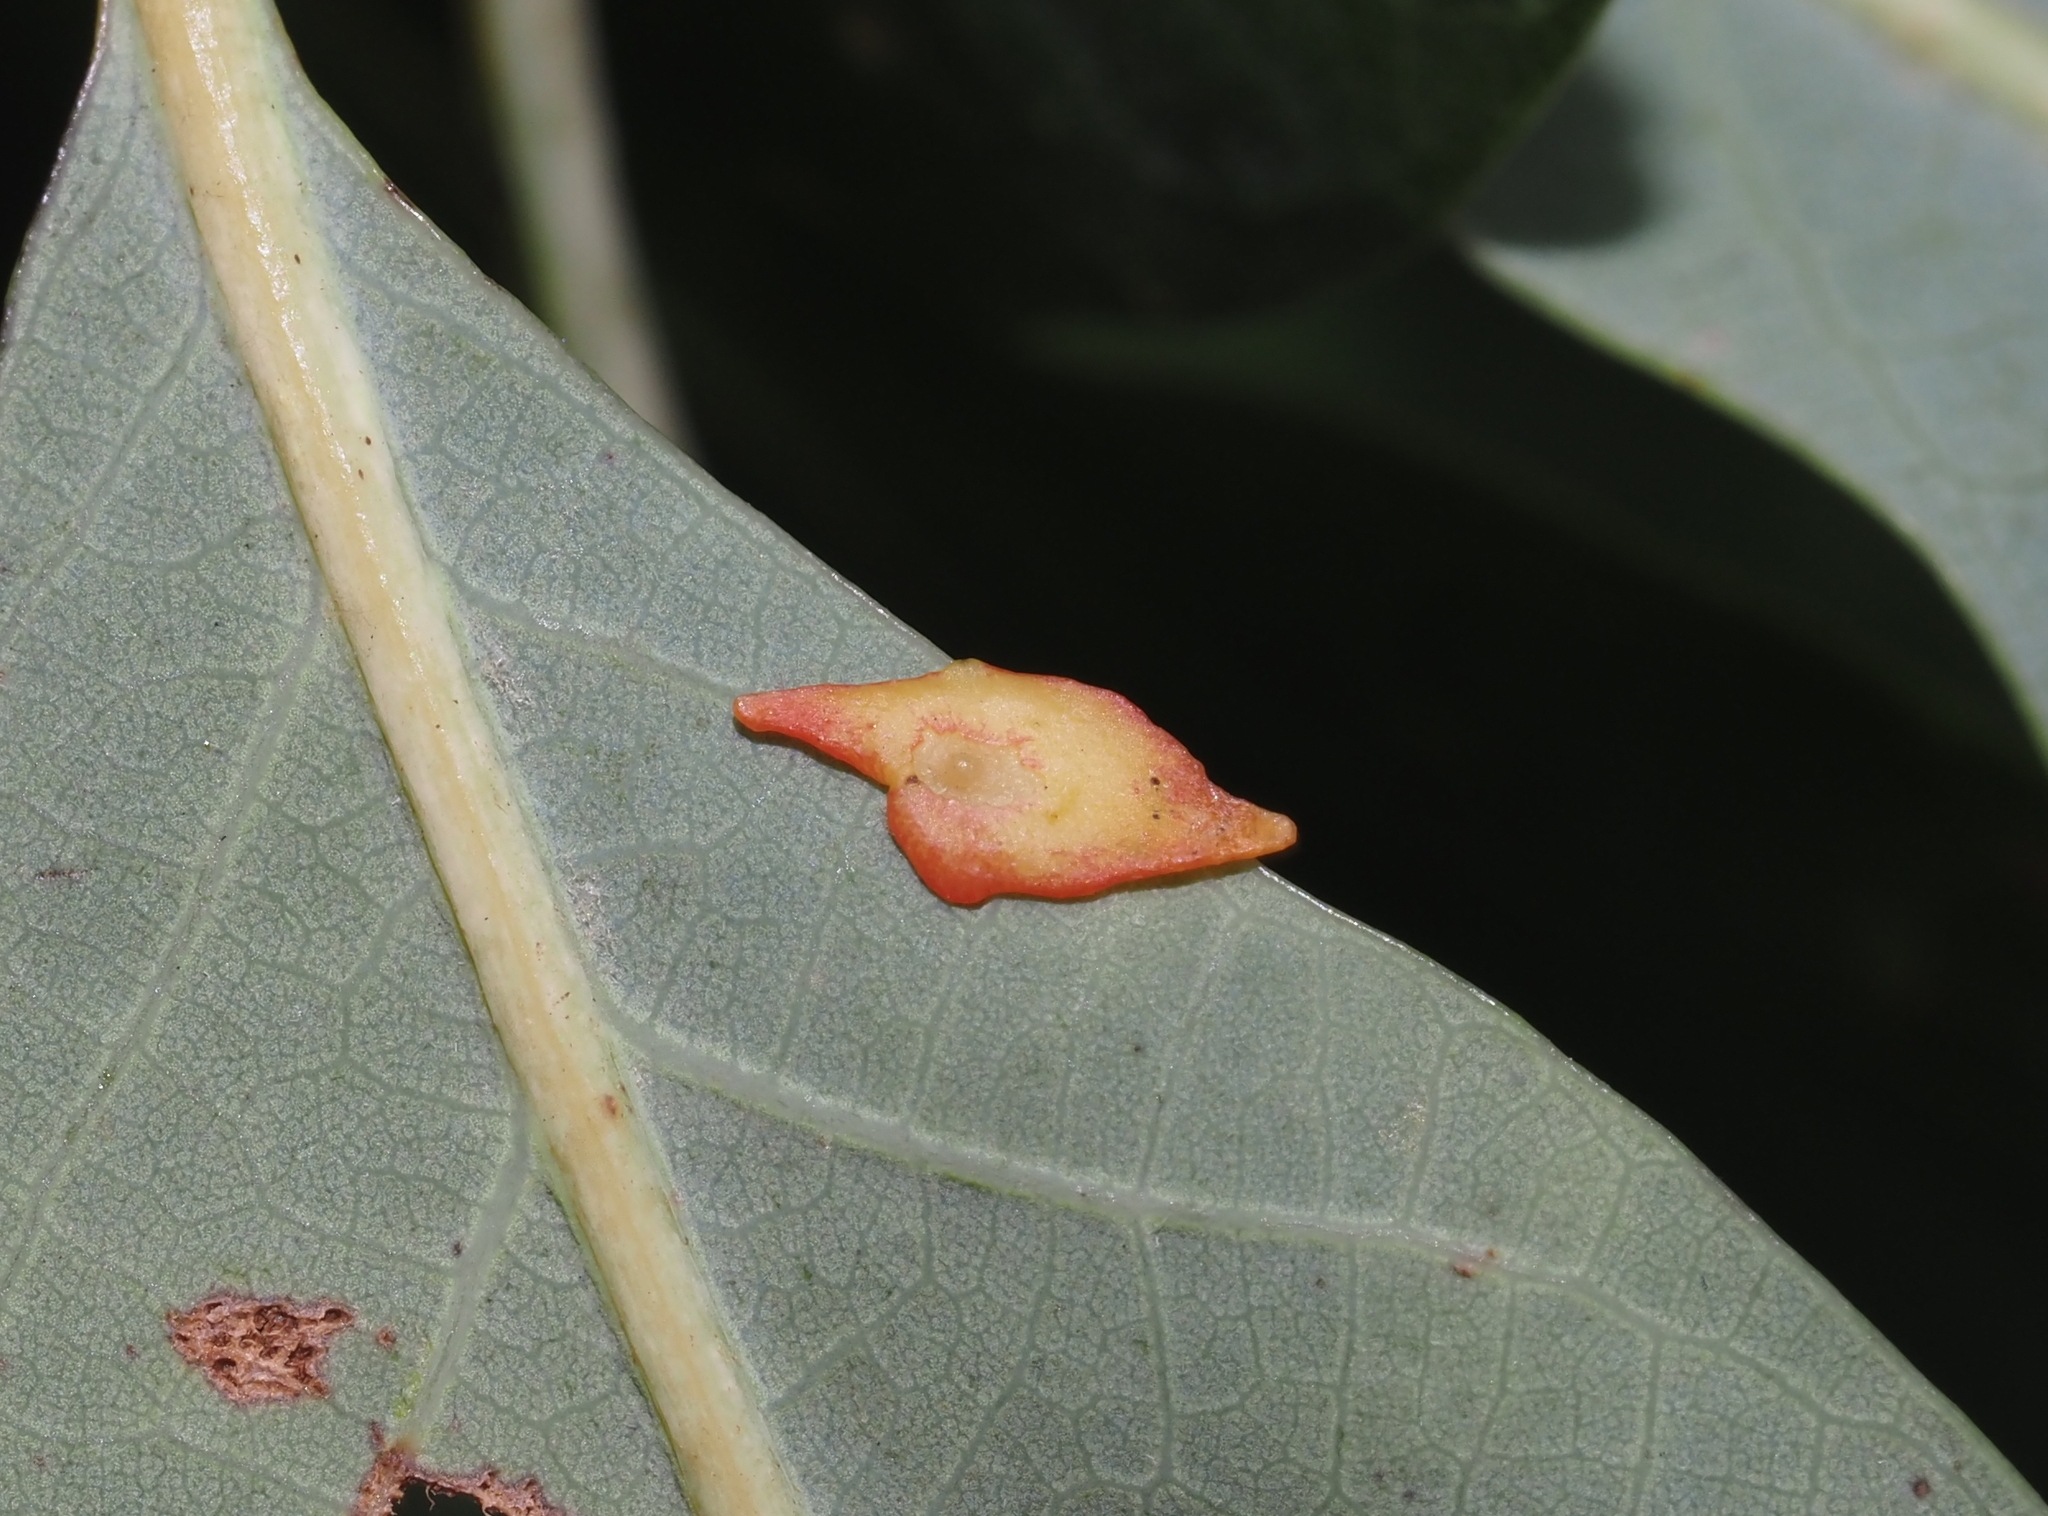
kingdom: Animalia
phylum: Arthropoda
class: Insecta
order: Hymenoptera
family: Cynipidae
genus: Phylloteras
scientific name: Phylloteras
